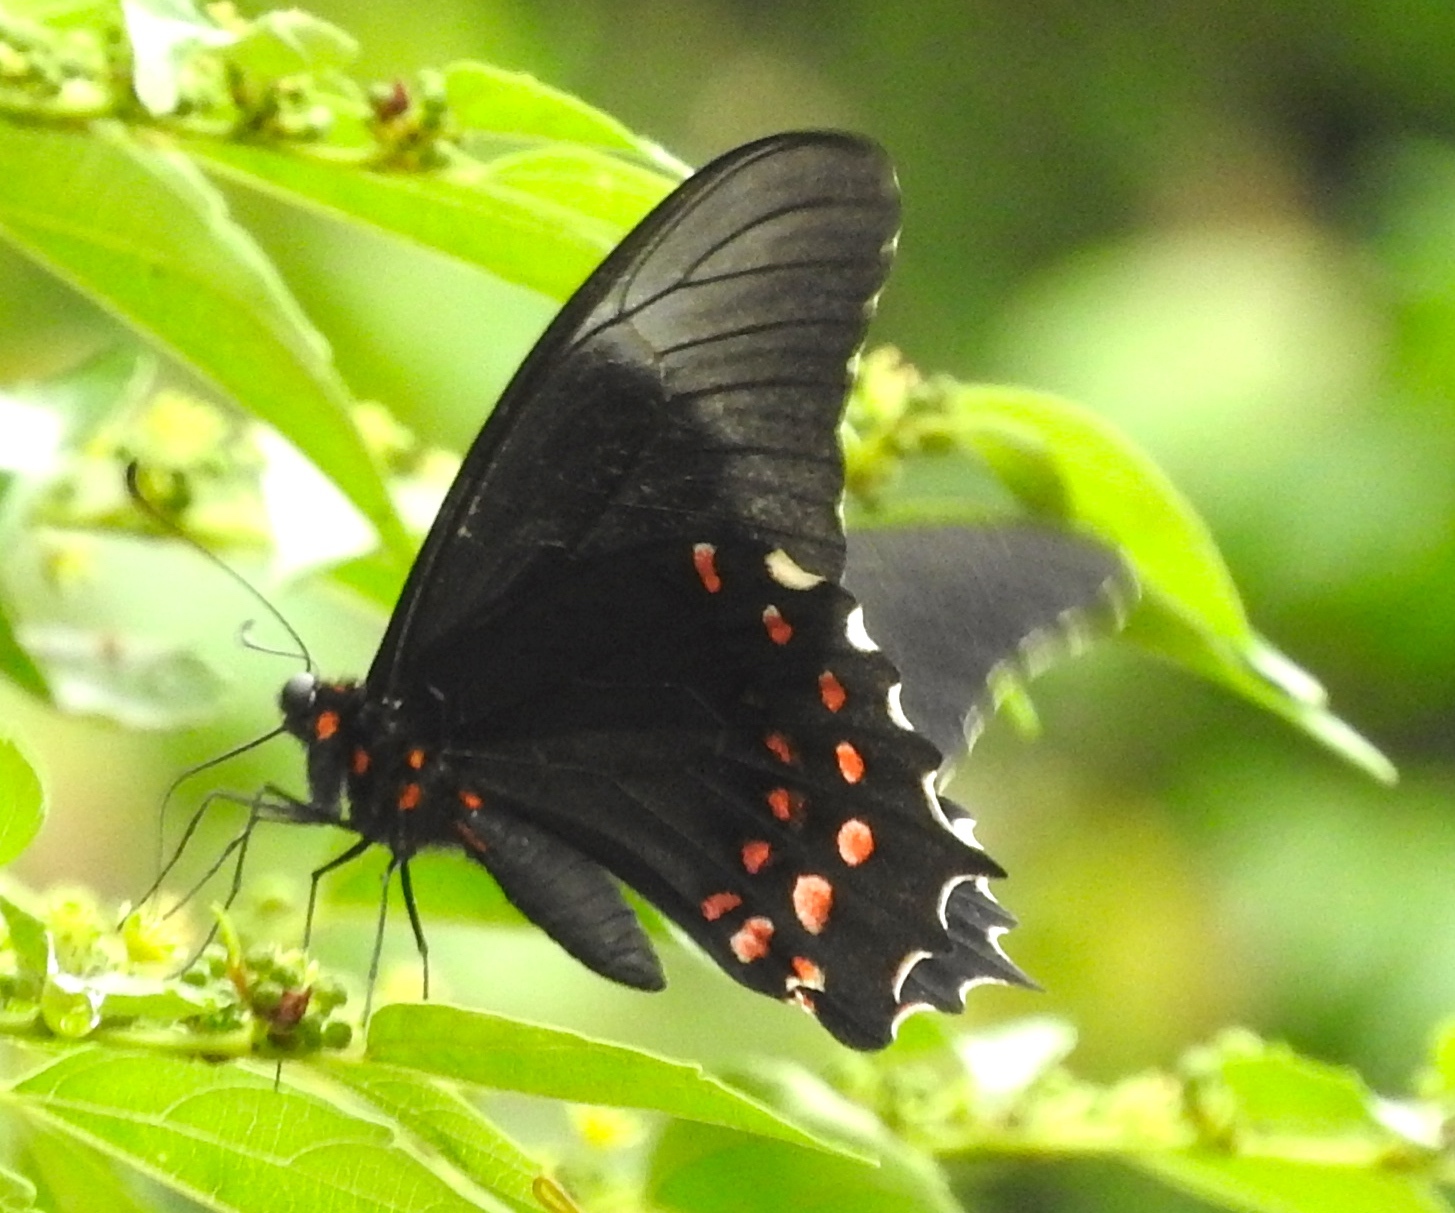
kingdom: Animalia
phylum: Arthropoda
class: Insecta
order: Lepidoptera
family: Papilionidae
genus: Heraclides
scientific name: Heraclides rogeri
